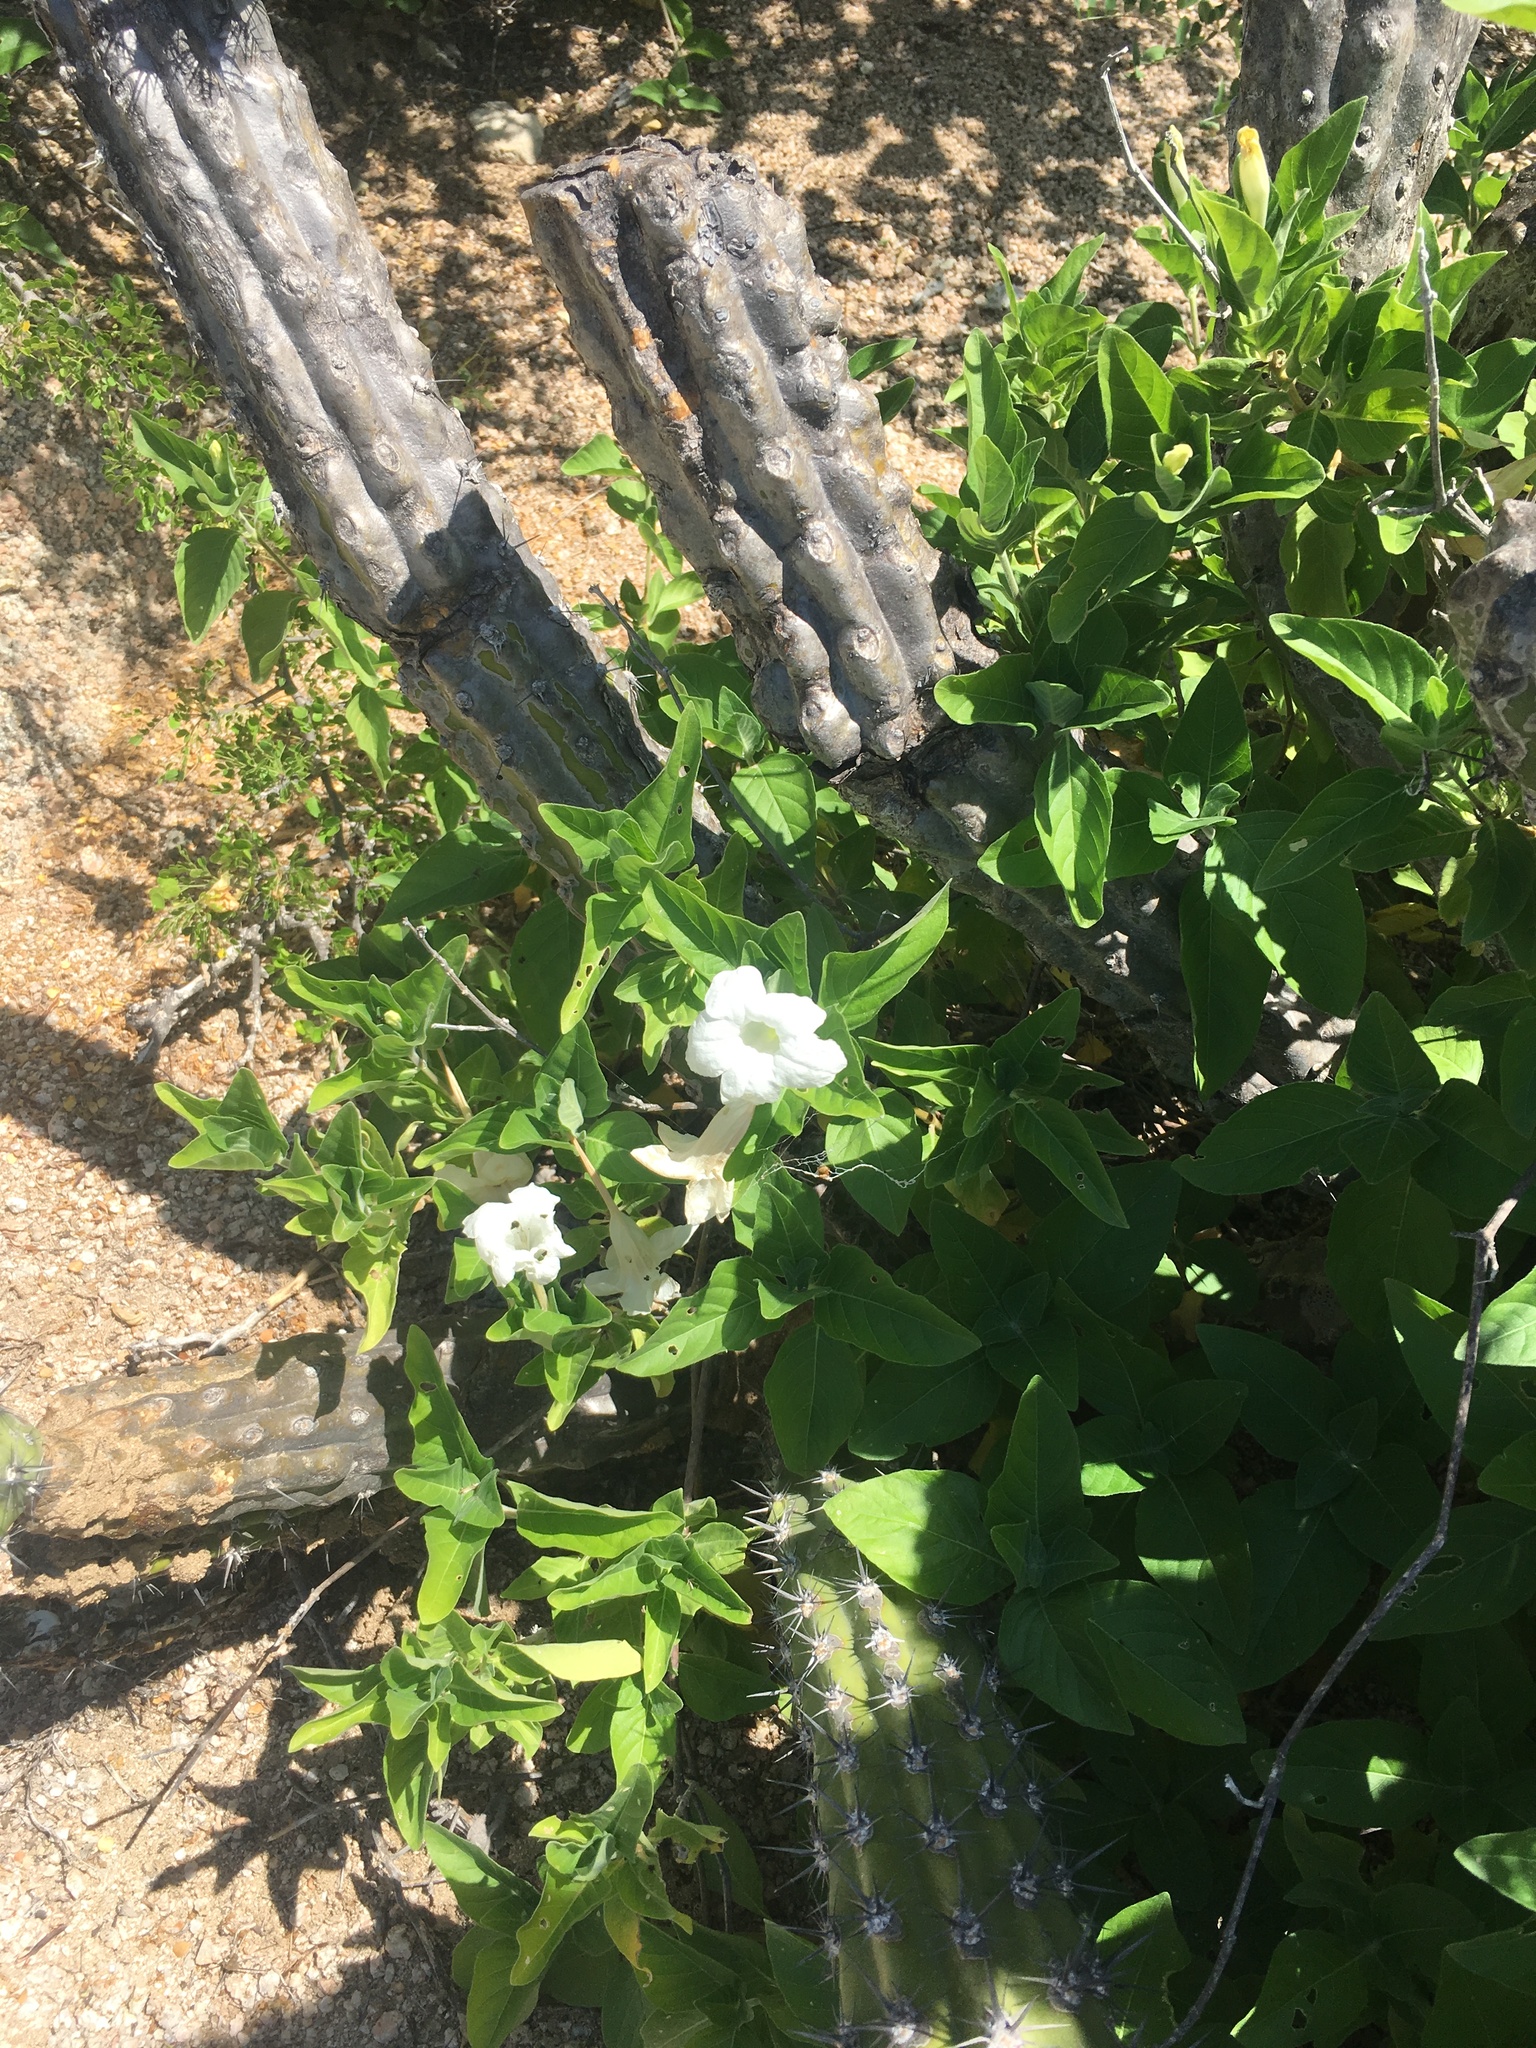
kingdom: Plantae
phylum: Tracheophyta
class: Magnoliopsida
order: Lamiales
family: Acanthaceae
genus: Ruellia
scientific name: Ruellia leucantha
